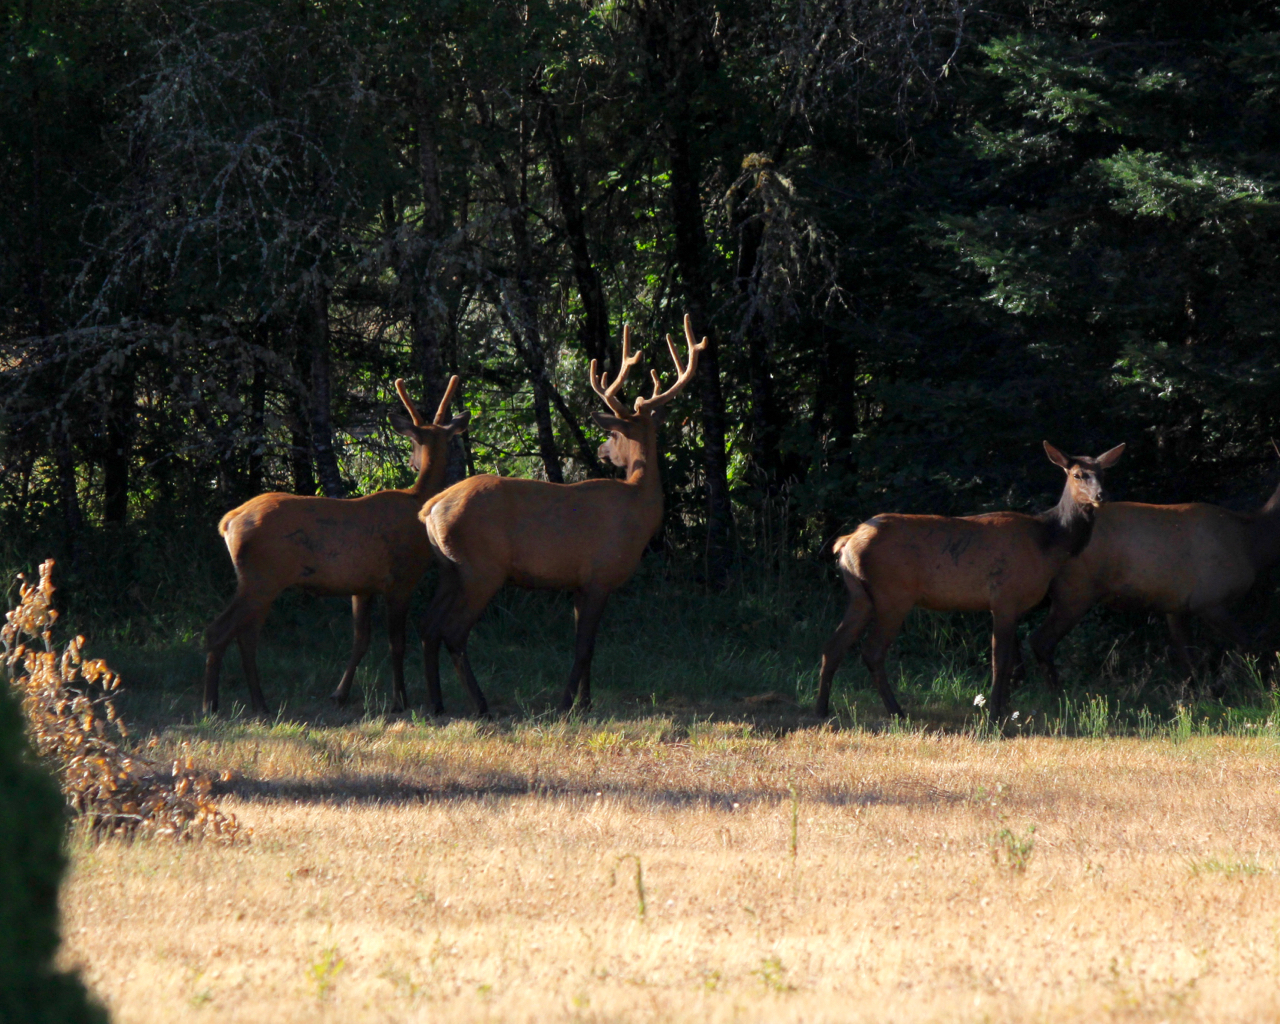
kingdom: Animalia
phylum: Chordata
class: Mammalia
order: Artiodactyla
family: Cervidae
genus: Cervus
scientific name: Cervus elaphus
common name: Red deer
